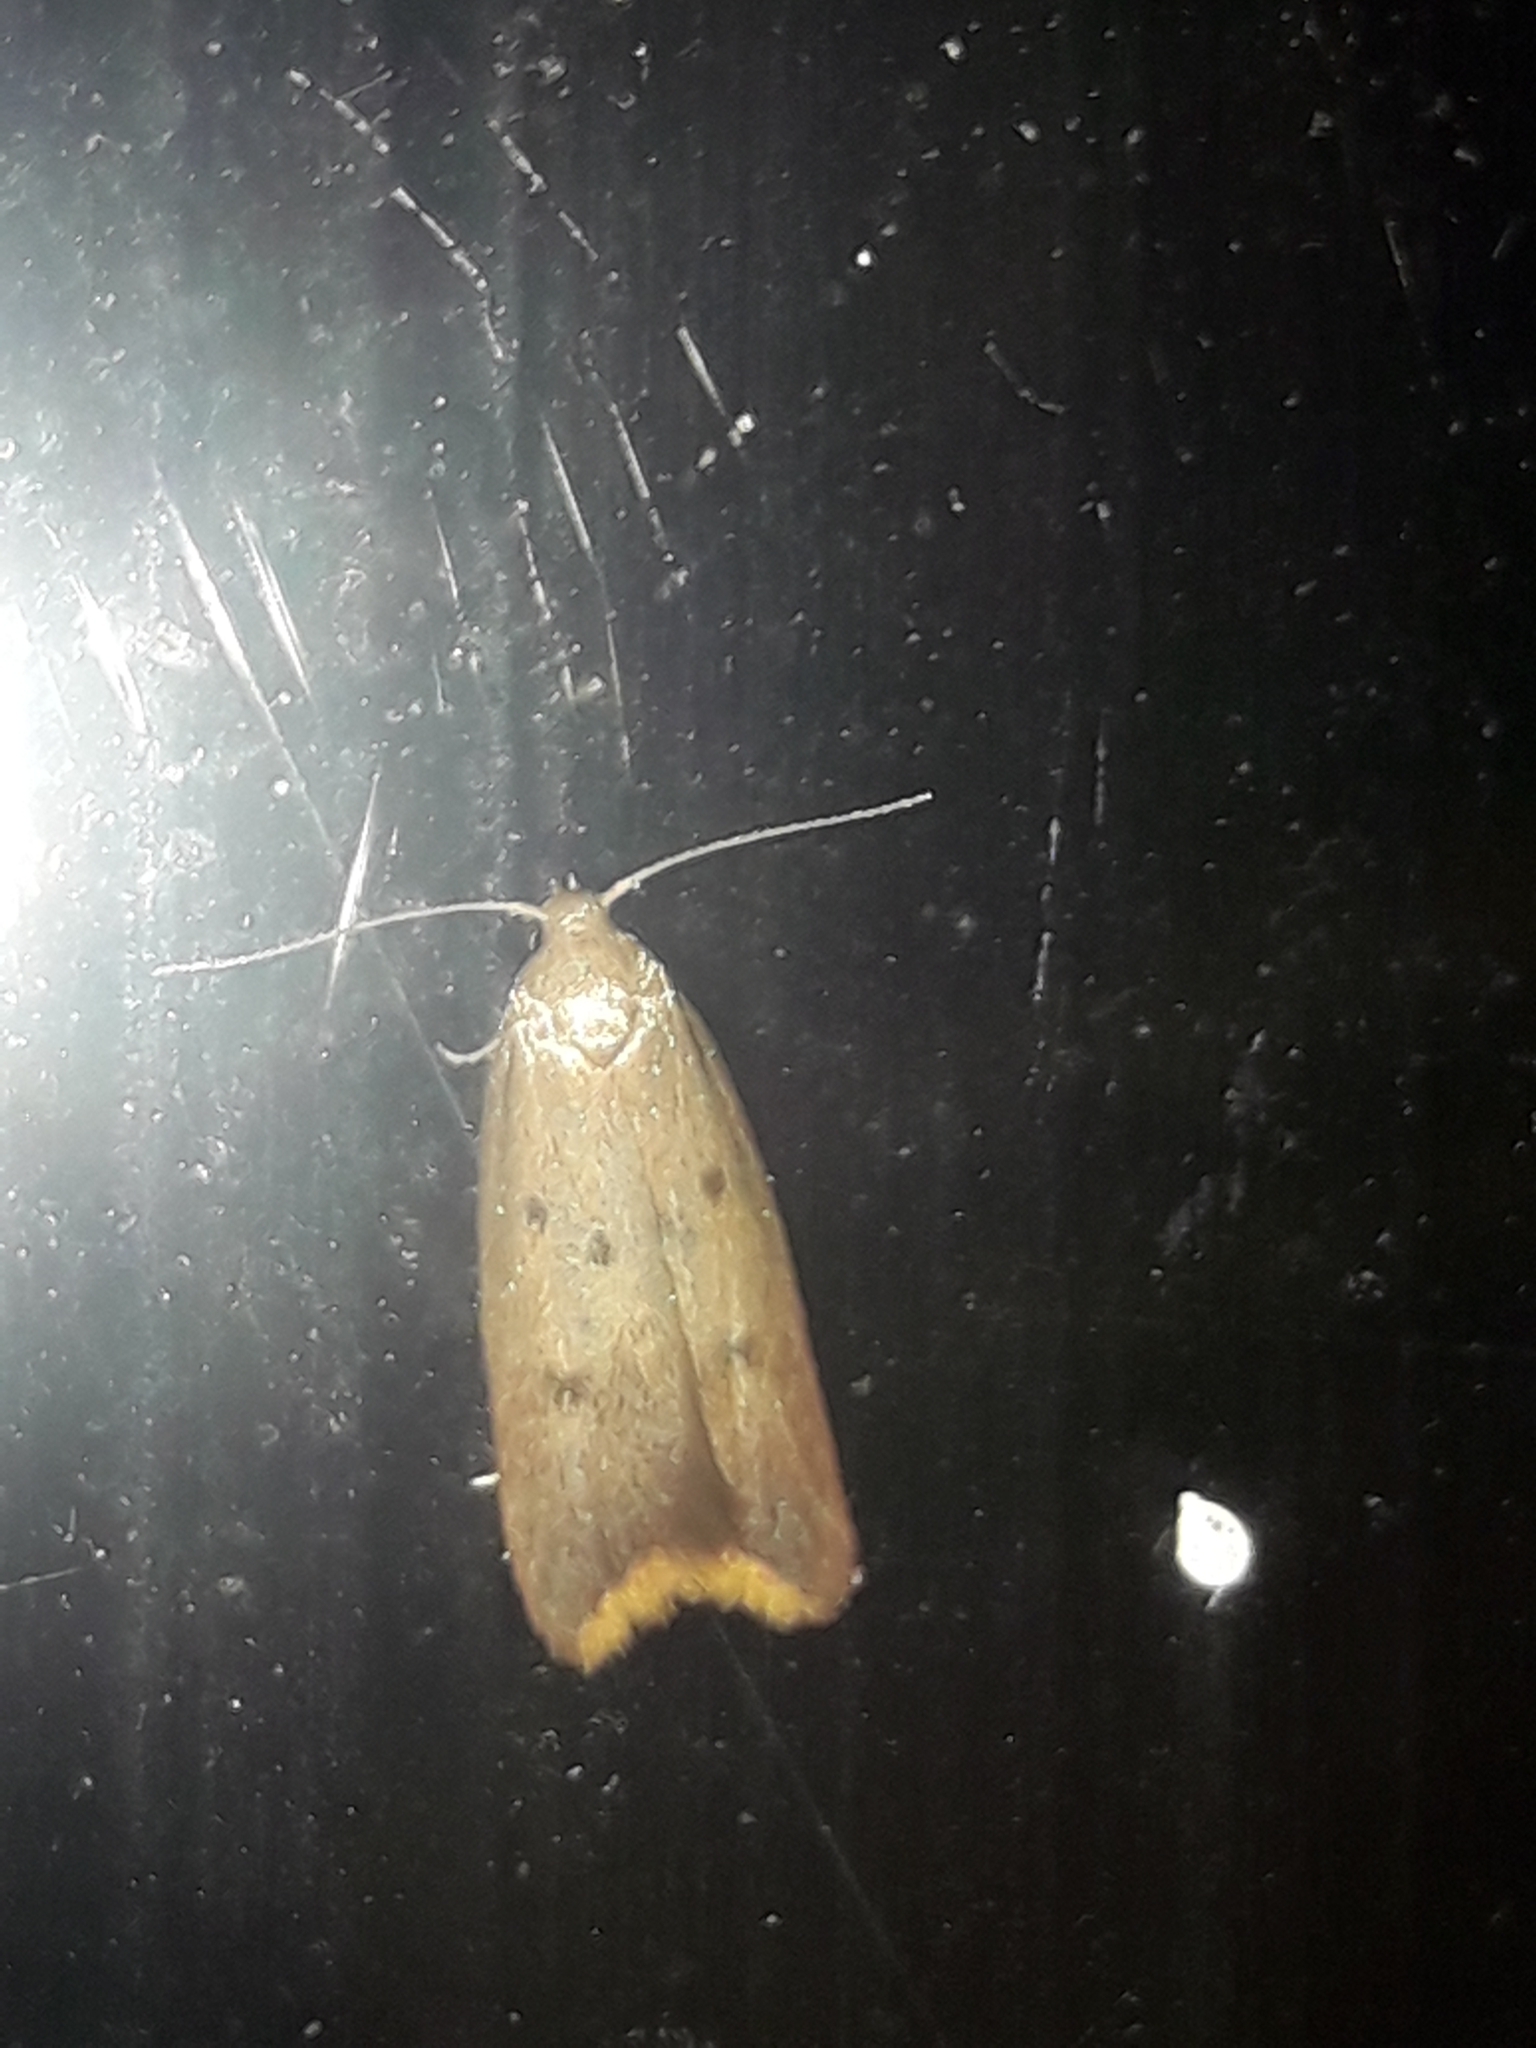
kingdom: Animalia
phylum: Arthropoda
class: Insecta
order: Lepidoptera
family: Oecophoridae
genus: Tachystola
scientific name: Tachystola acroxantha
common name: Ruddy streak
